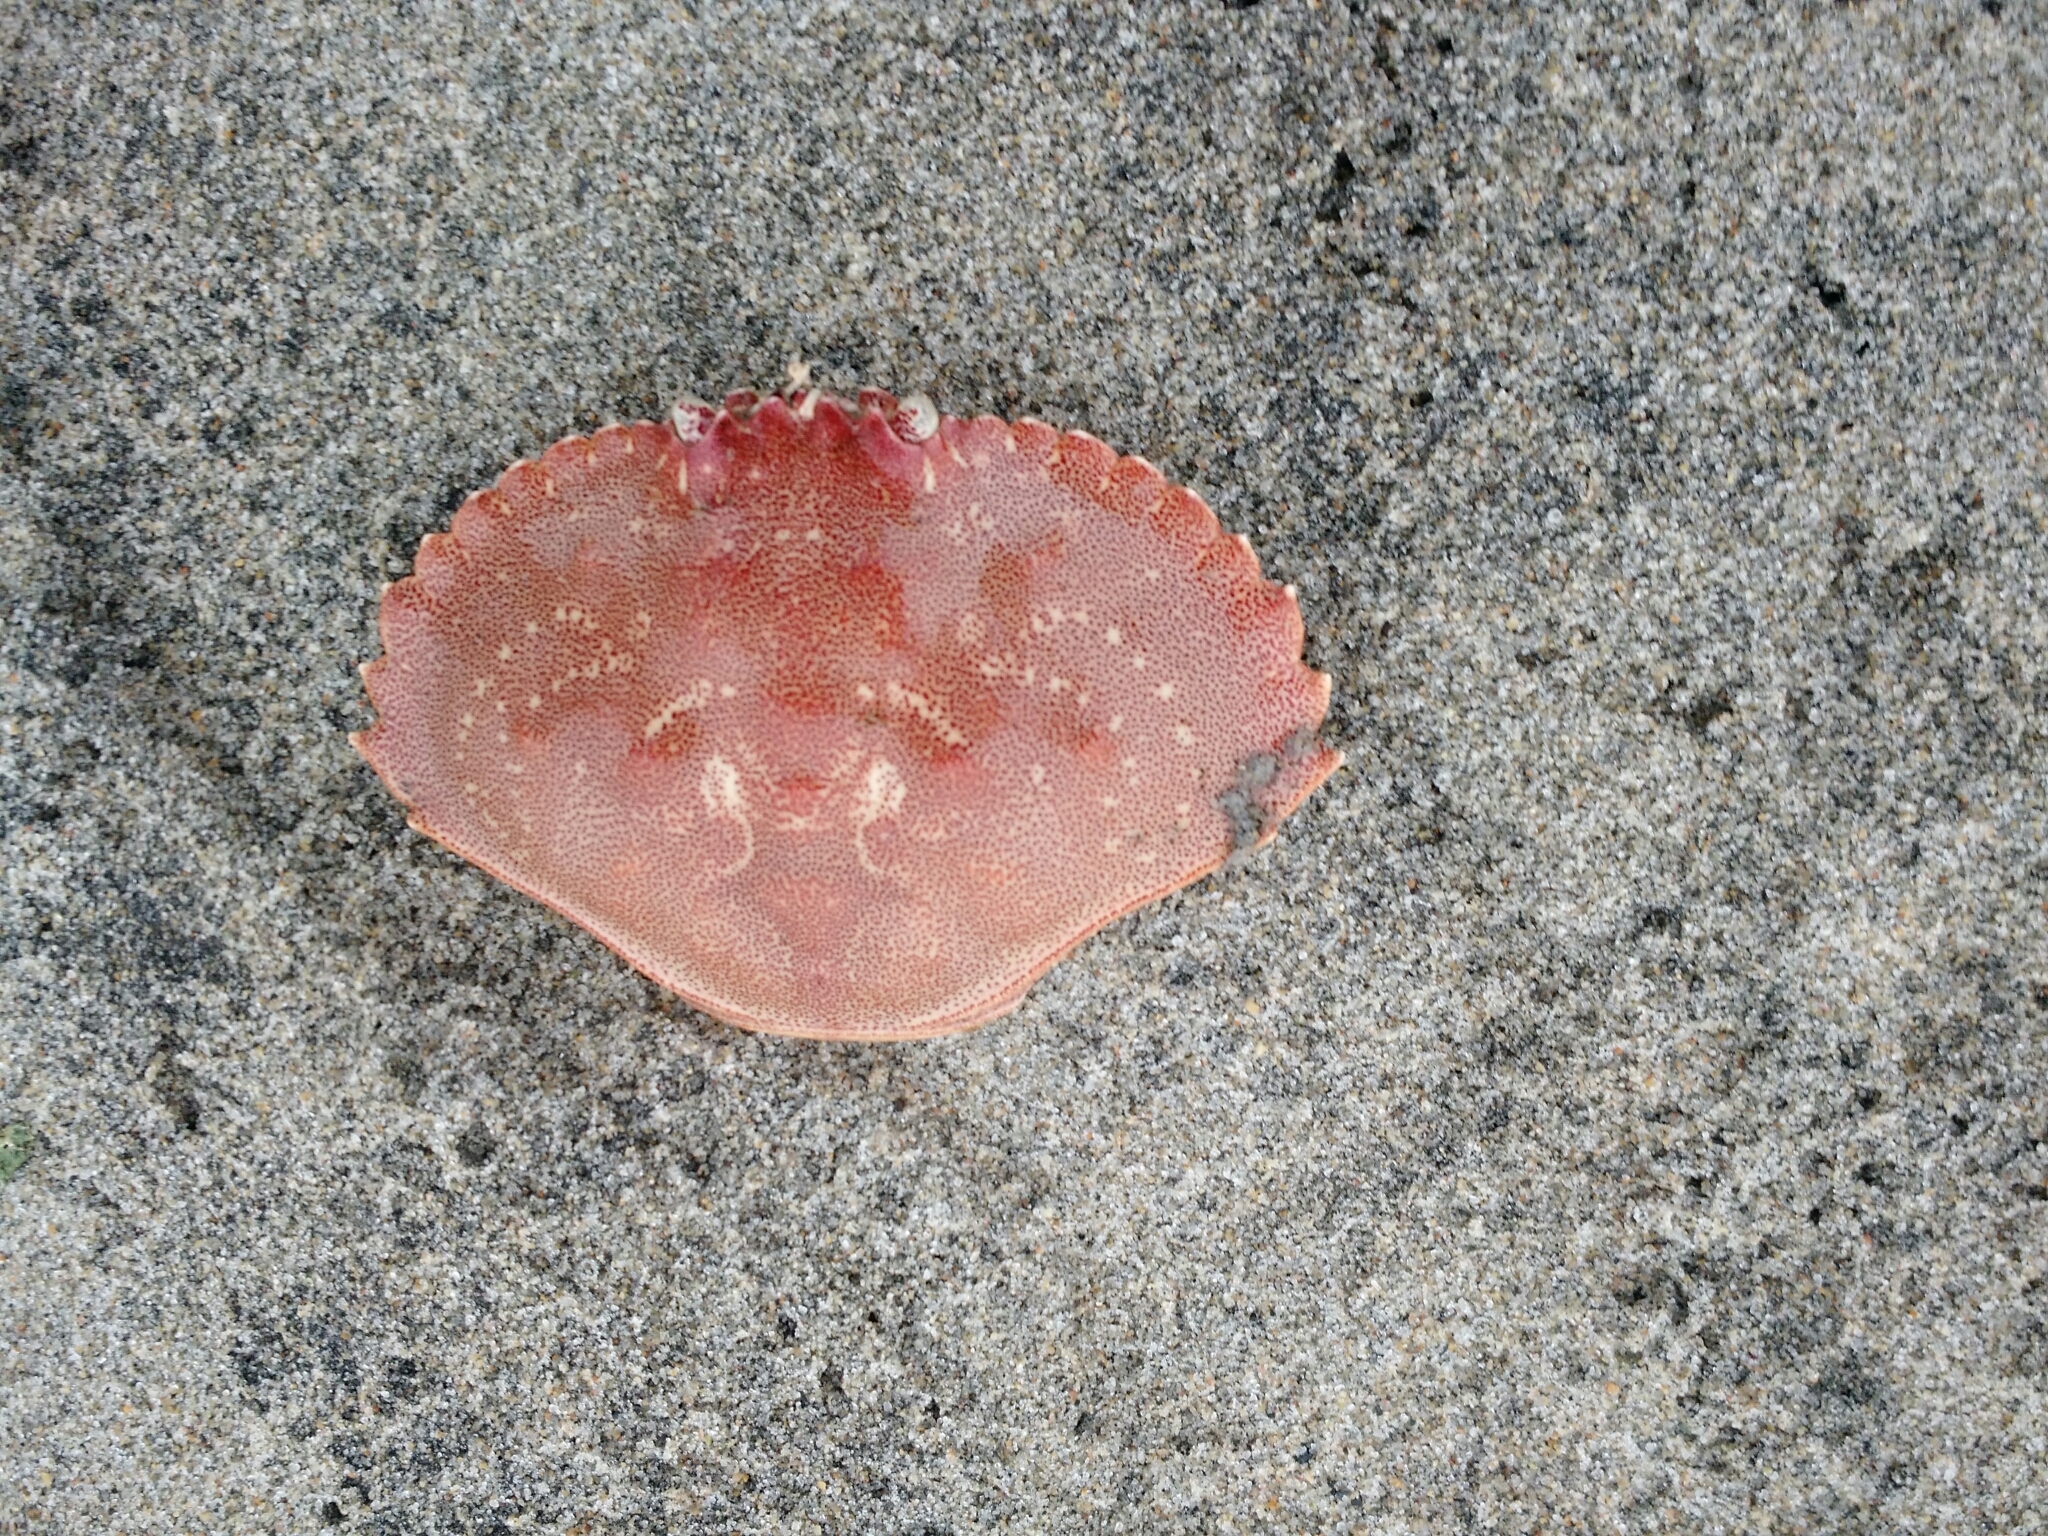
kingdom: Animalia
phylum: Arthropoda
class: Malacostraca
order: Decapoda
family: Cancridae
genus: Cancer
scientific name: Cancer irroratus
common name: Atlantic rock crab
